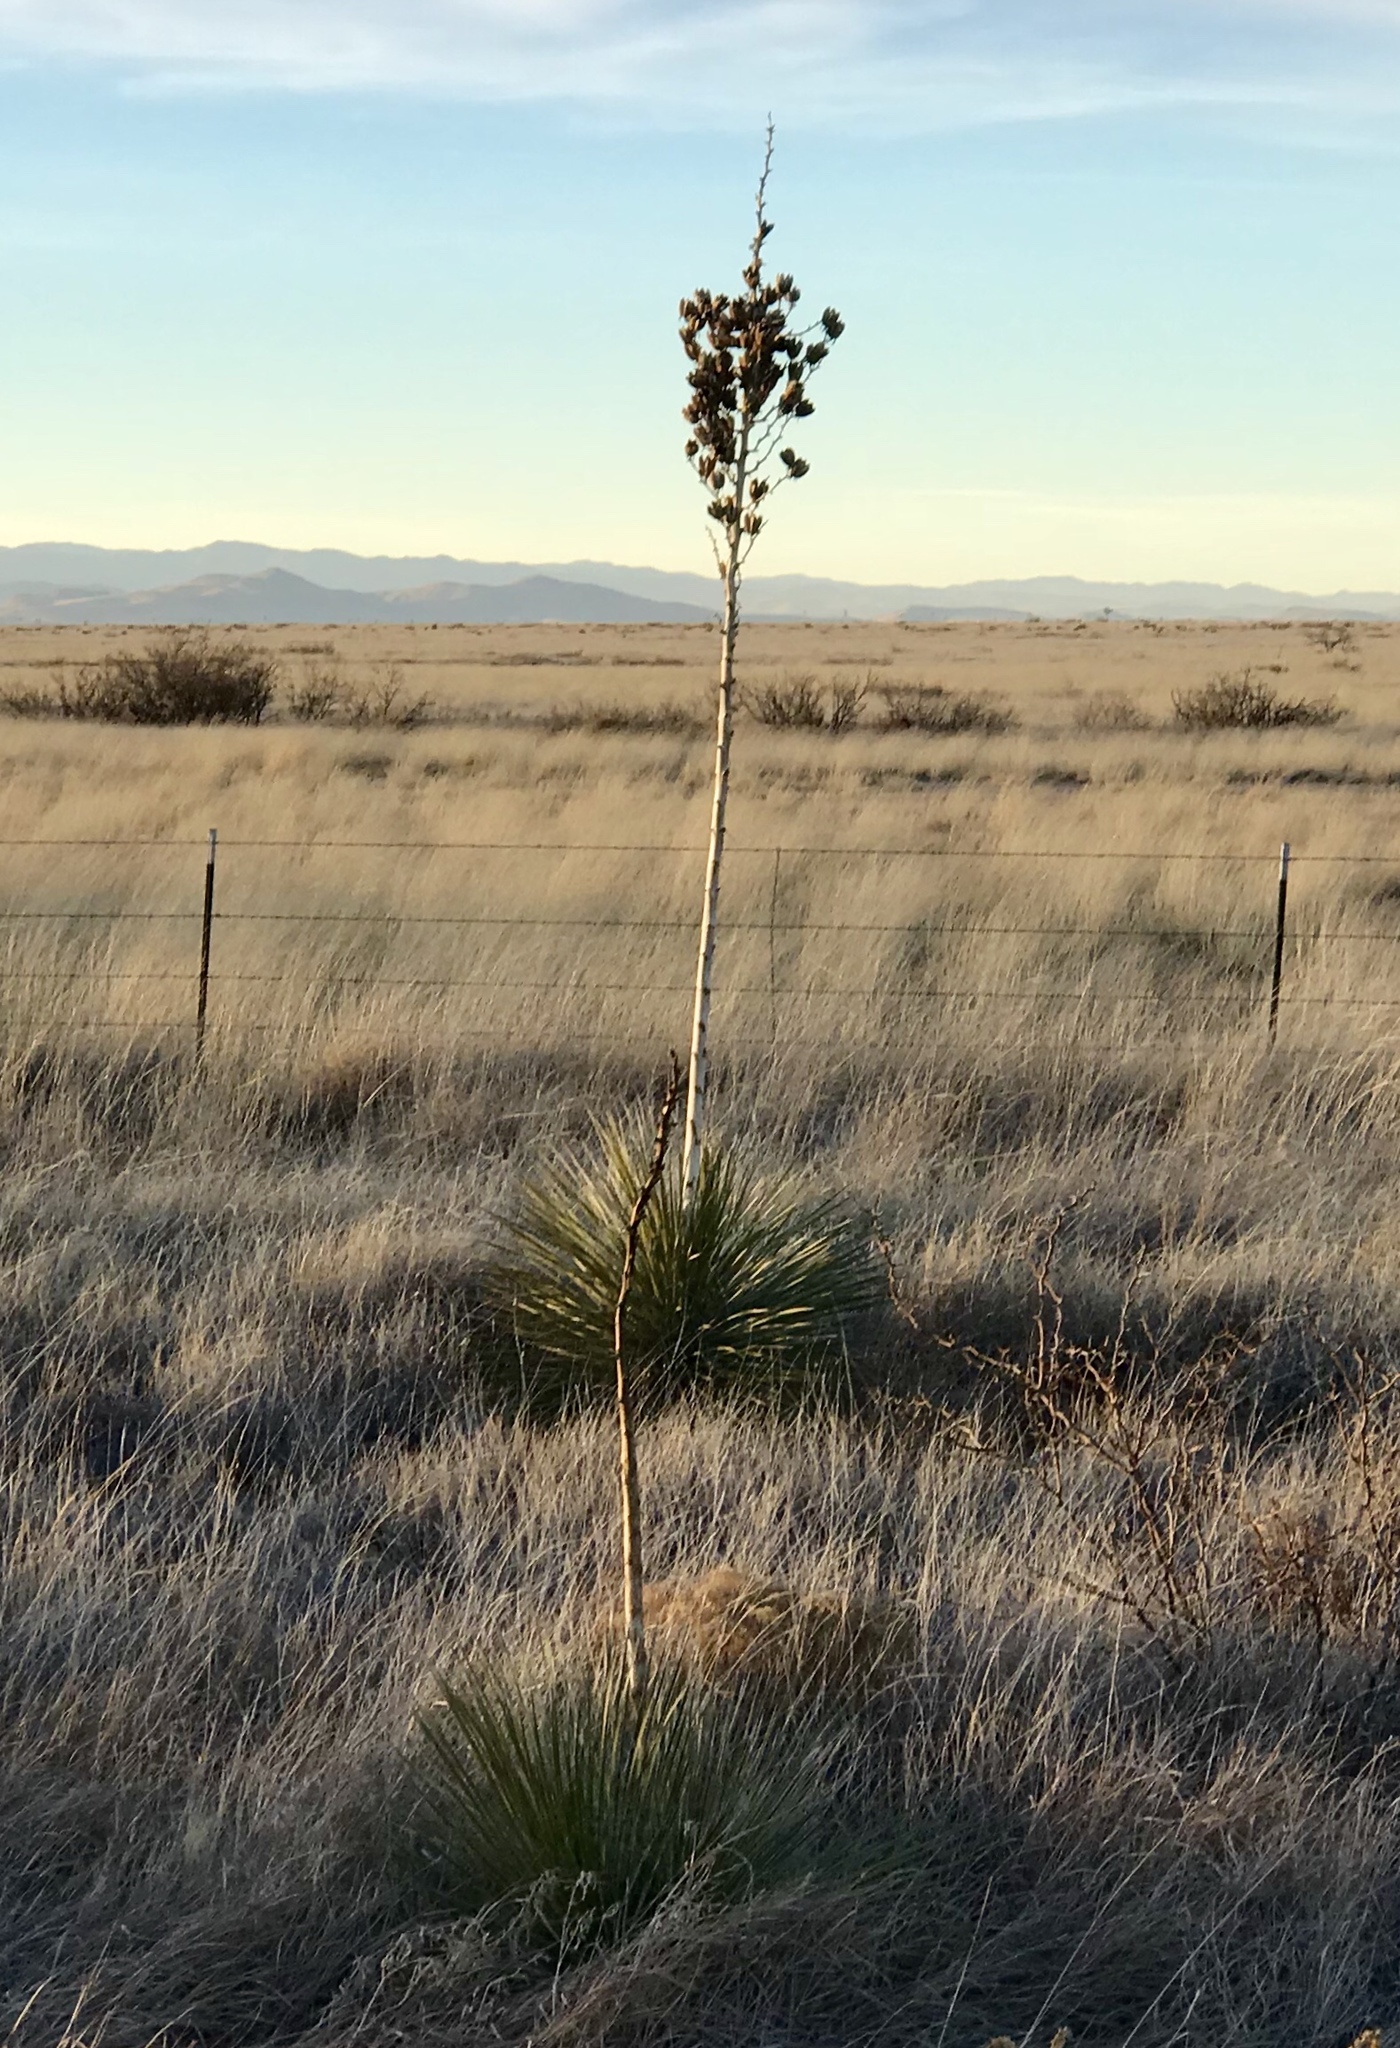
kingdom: Plantae
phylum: Tracheophyta
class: Liliopsida
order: Asparagales
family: Asparagaceae
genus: Yucca
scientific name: Yucca elata
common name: Palmella
